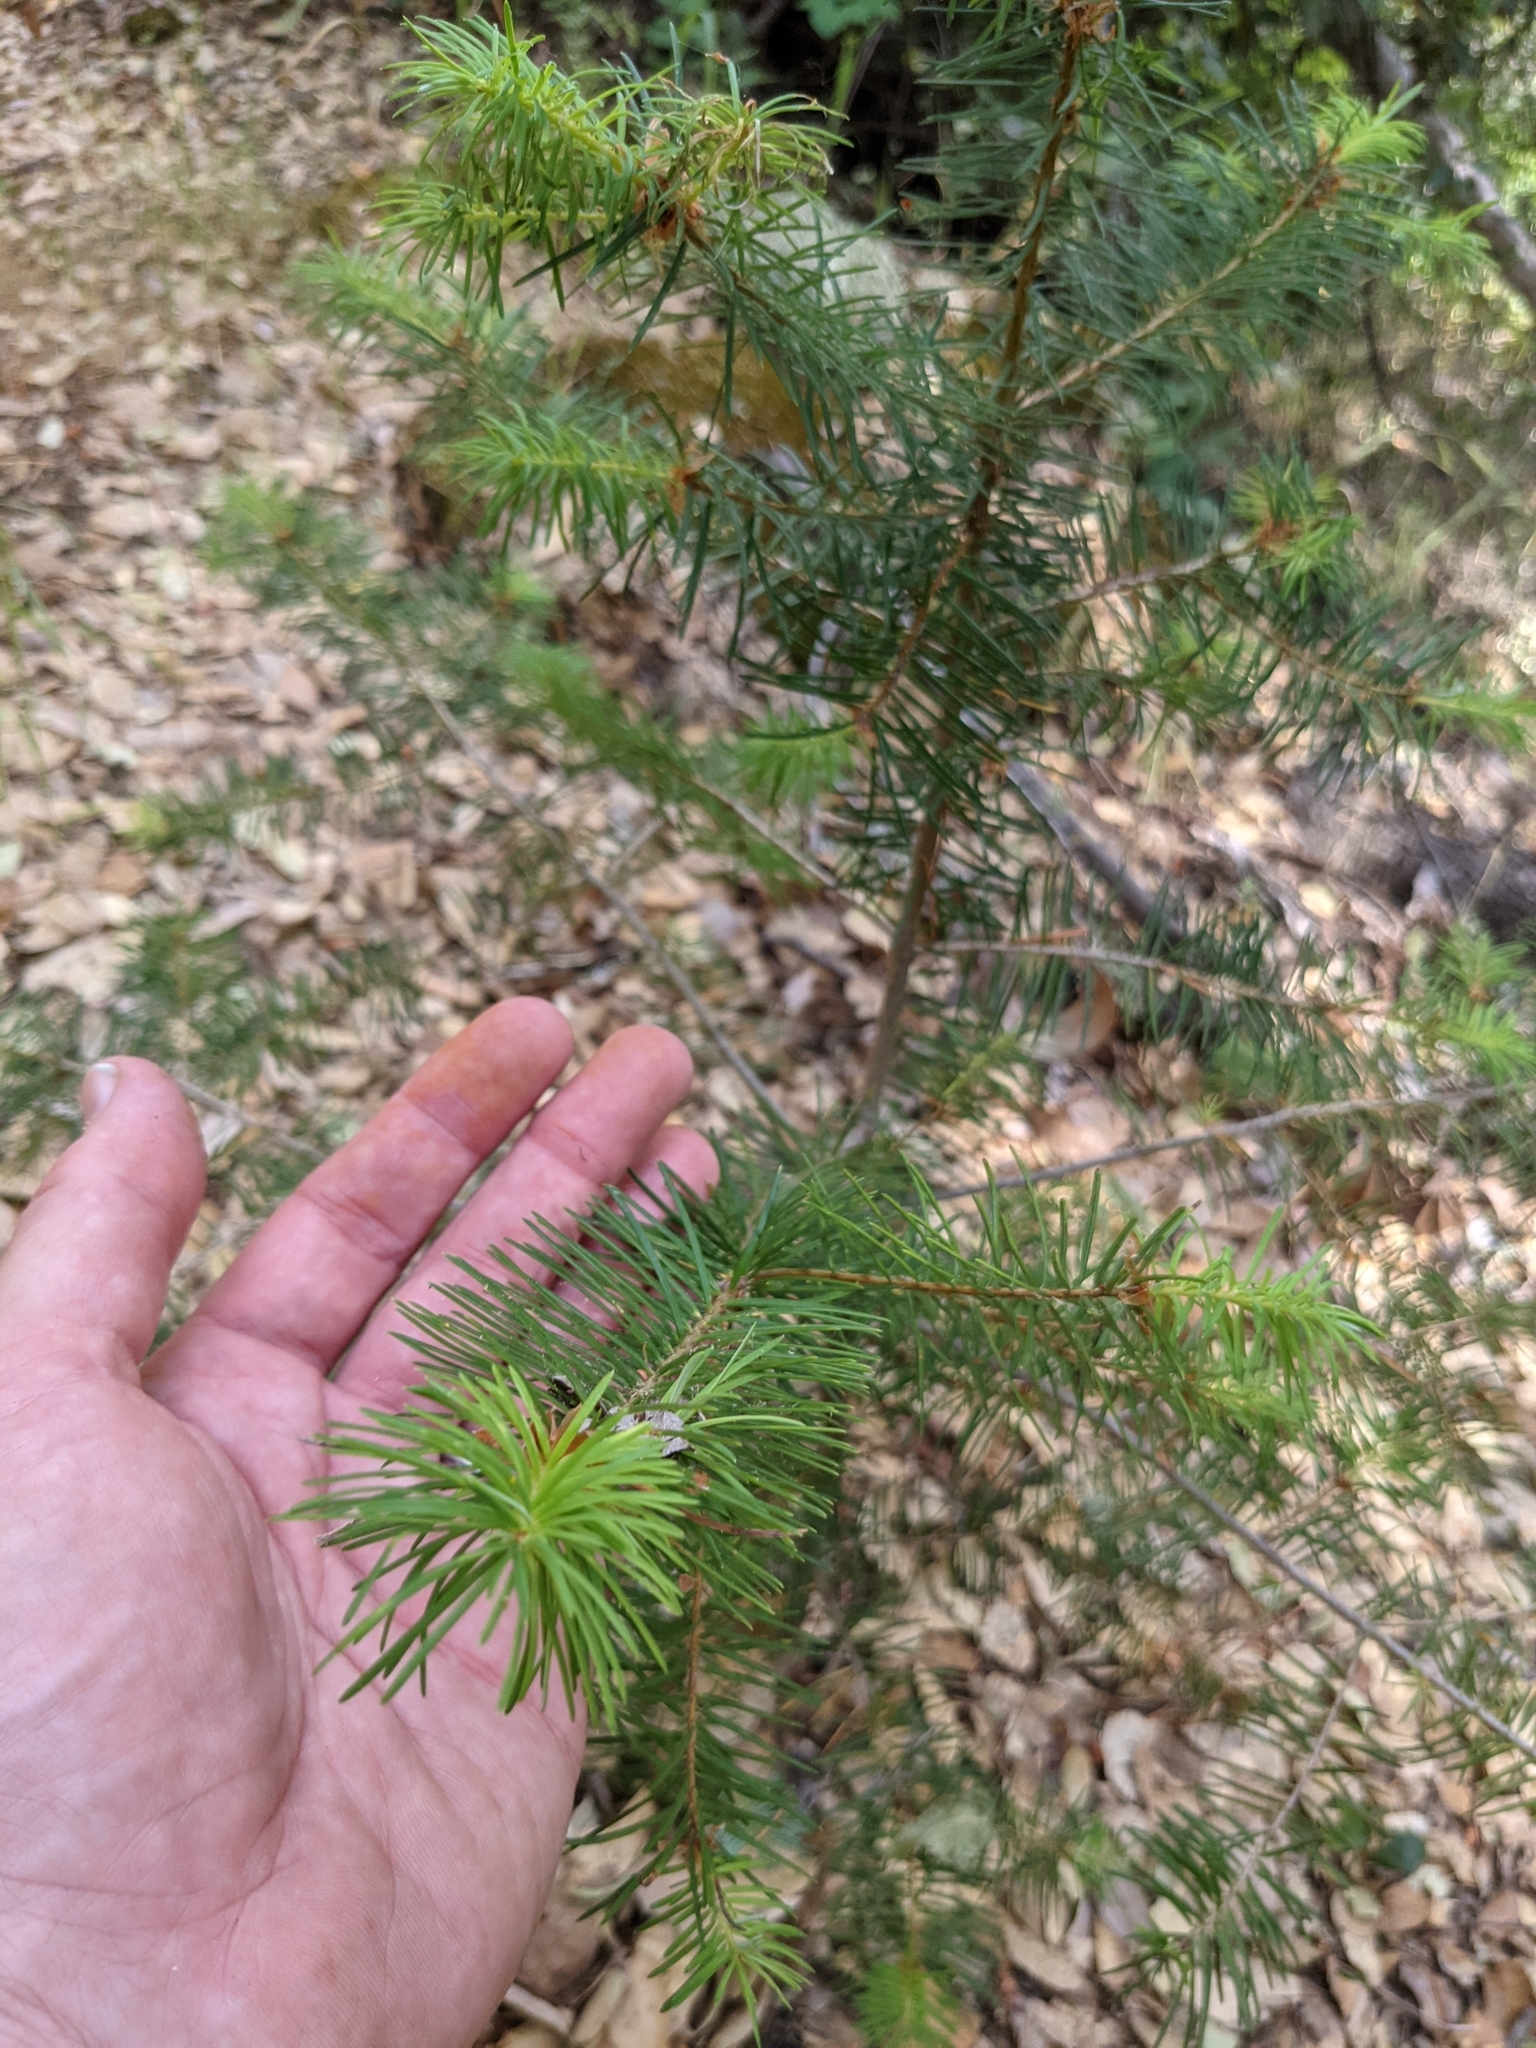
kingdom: Plantae
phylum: Tracheophyta
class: Pinopsida
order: Pinales
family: Pinaceae
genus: Pseudotsuga
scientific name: Pseudotsuga menziesii
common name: Douglas fir
